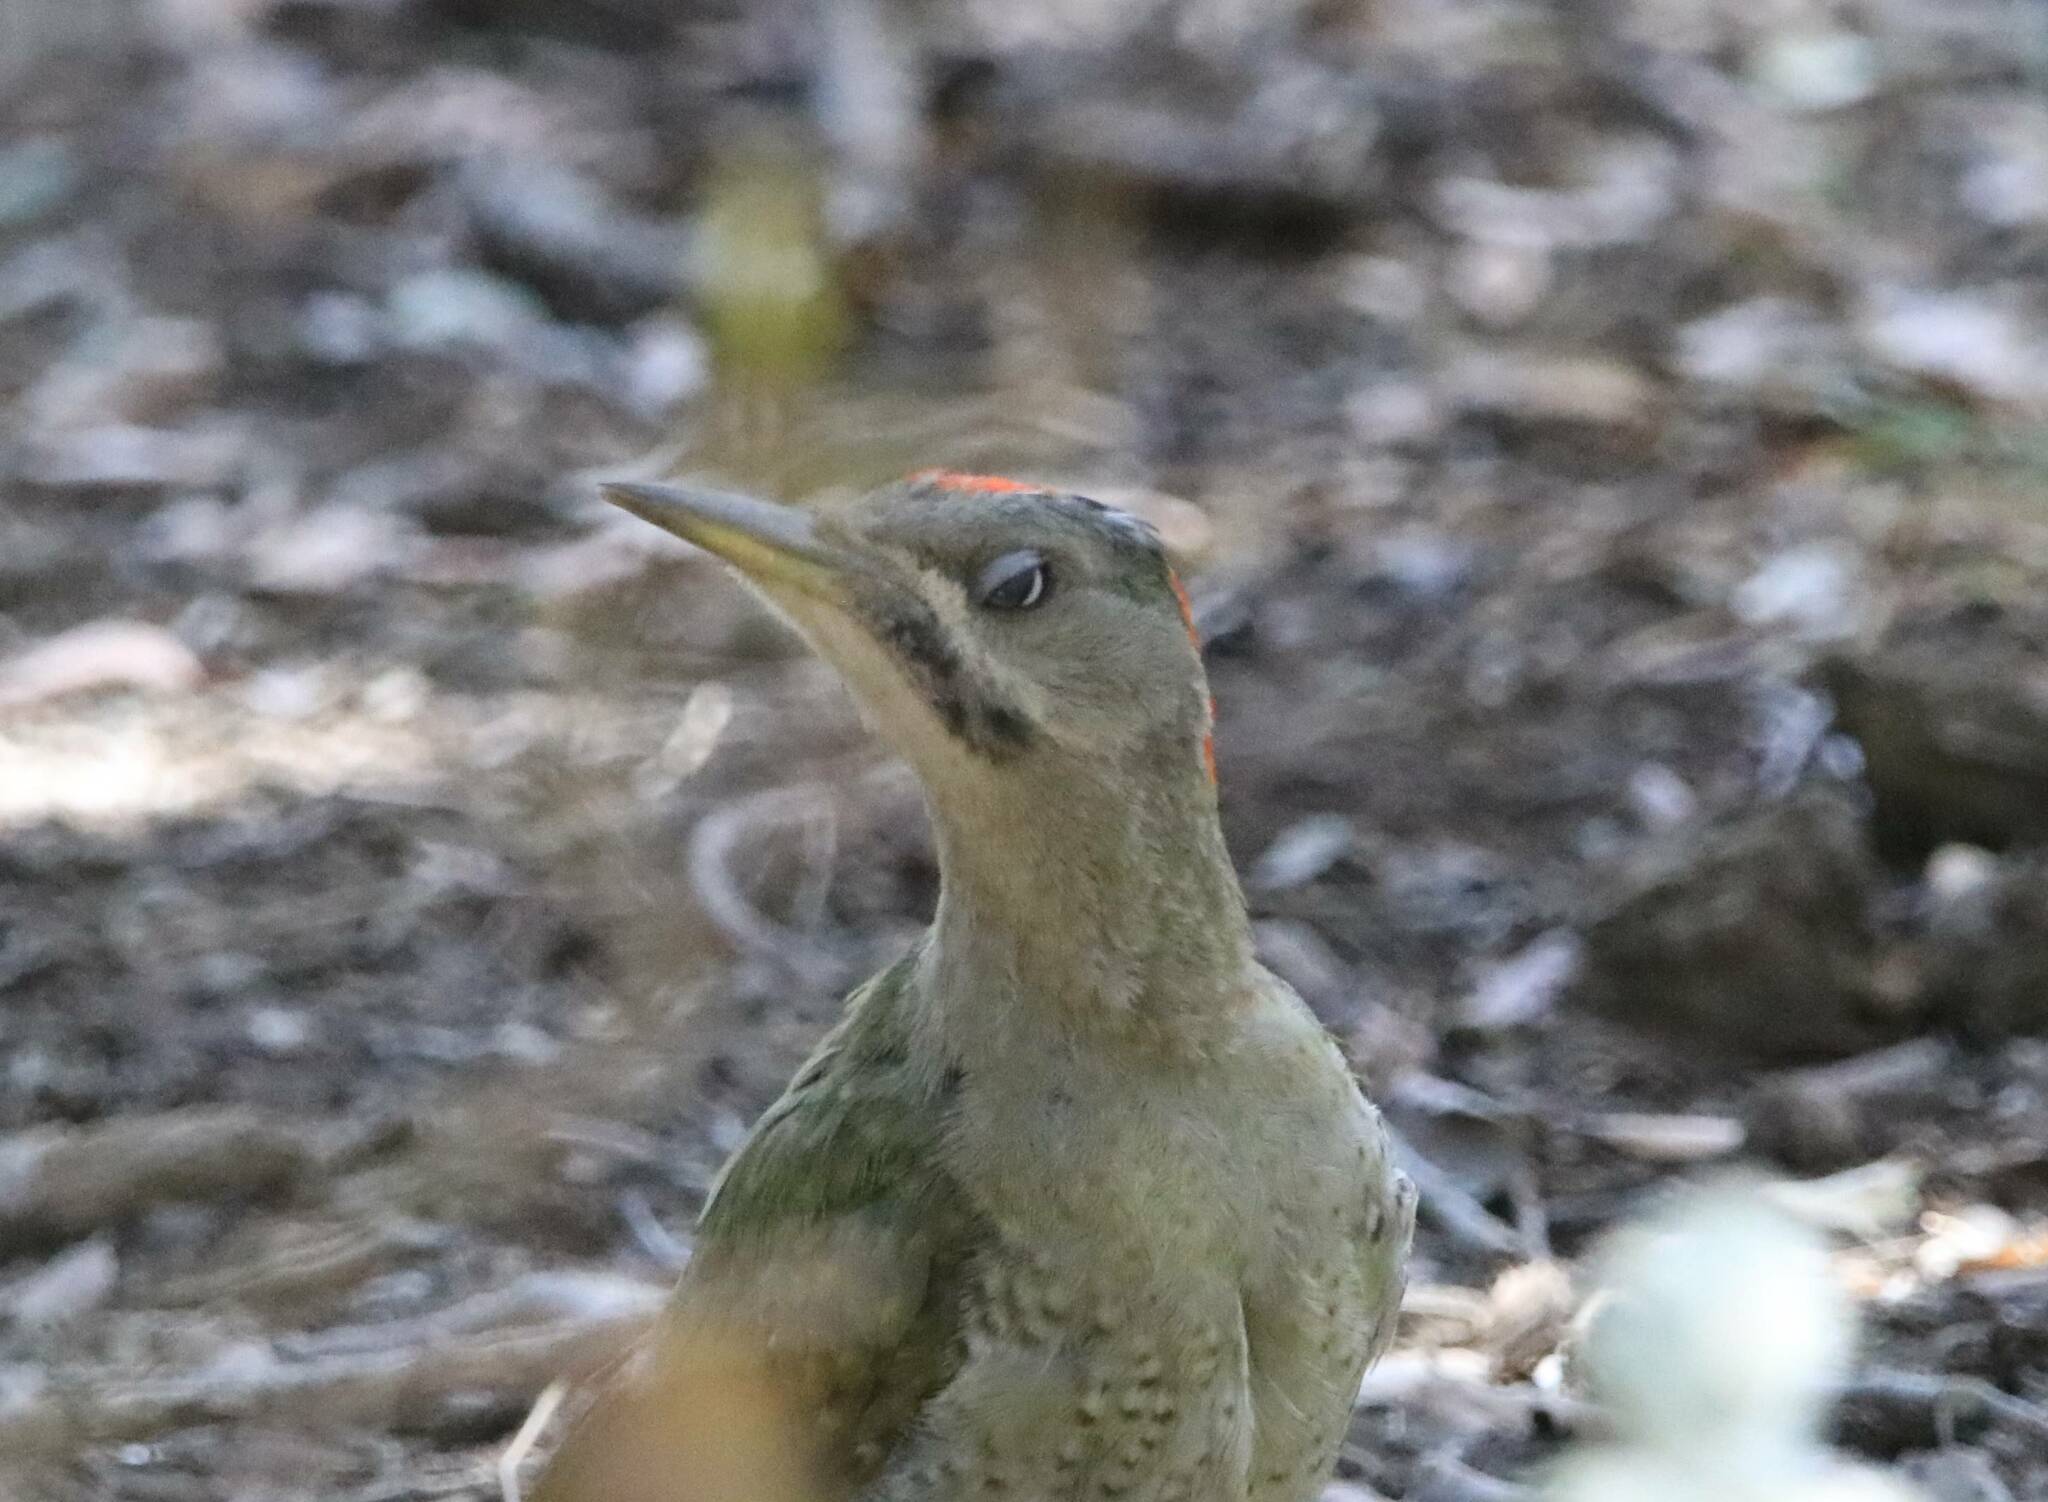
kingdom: Animalia
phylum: Chordata
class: Aves
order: Piciformes
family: Picidae
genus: Picus
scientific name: Picus vaillantii
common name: Levaillant's woodpecker
